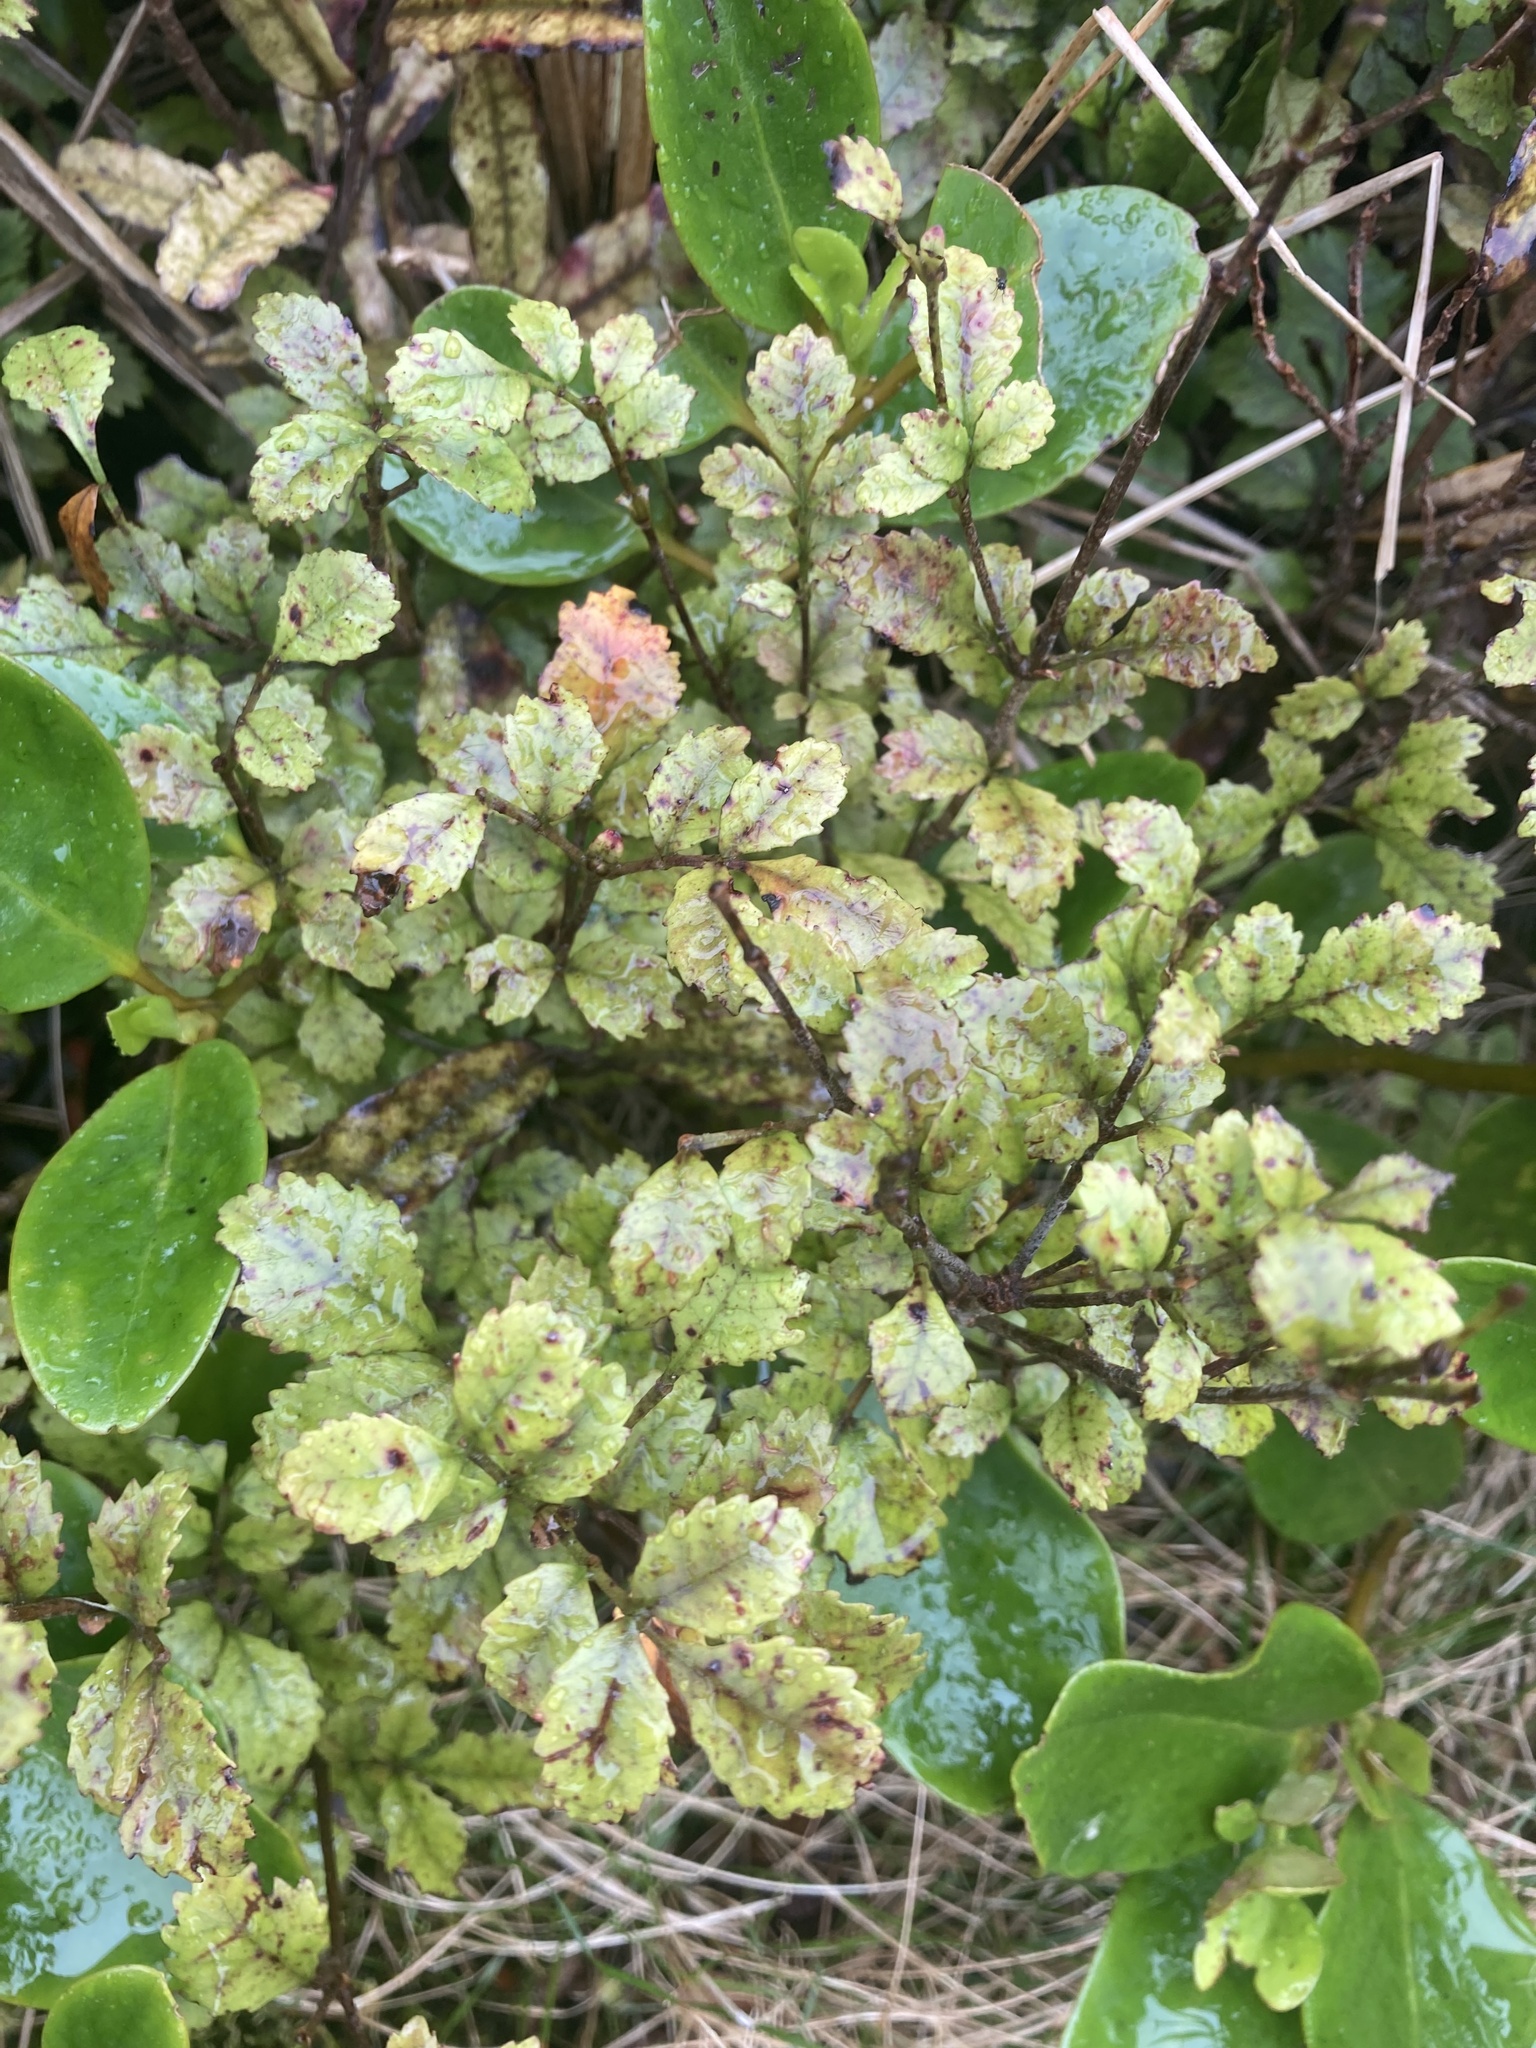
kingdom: Plantae
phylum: Tracheophyta
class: Magnoliopsida
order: Oxalidales
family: Cunoniaceae
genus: Pterophylla
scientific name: Pterophylla sylvicola
